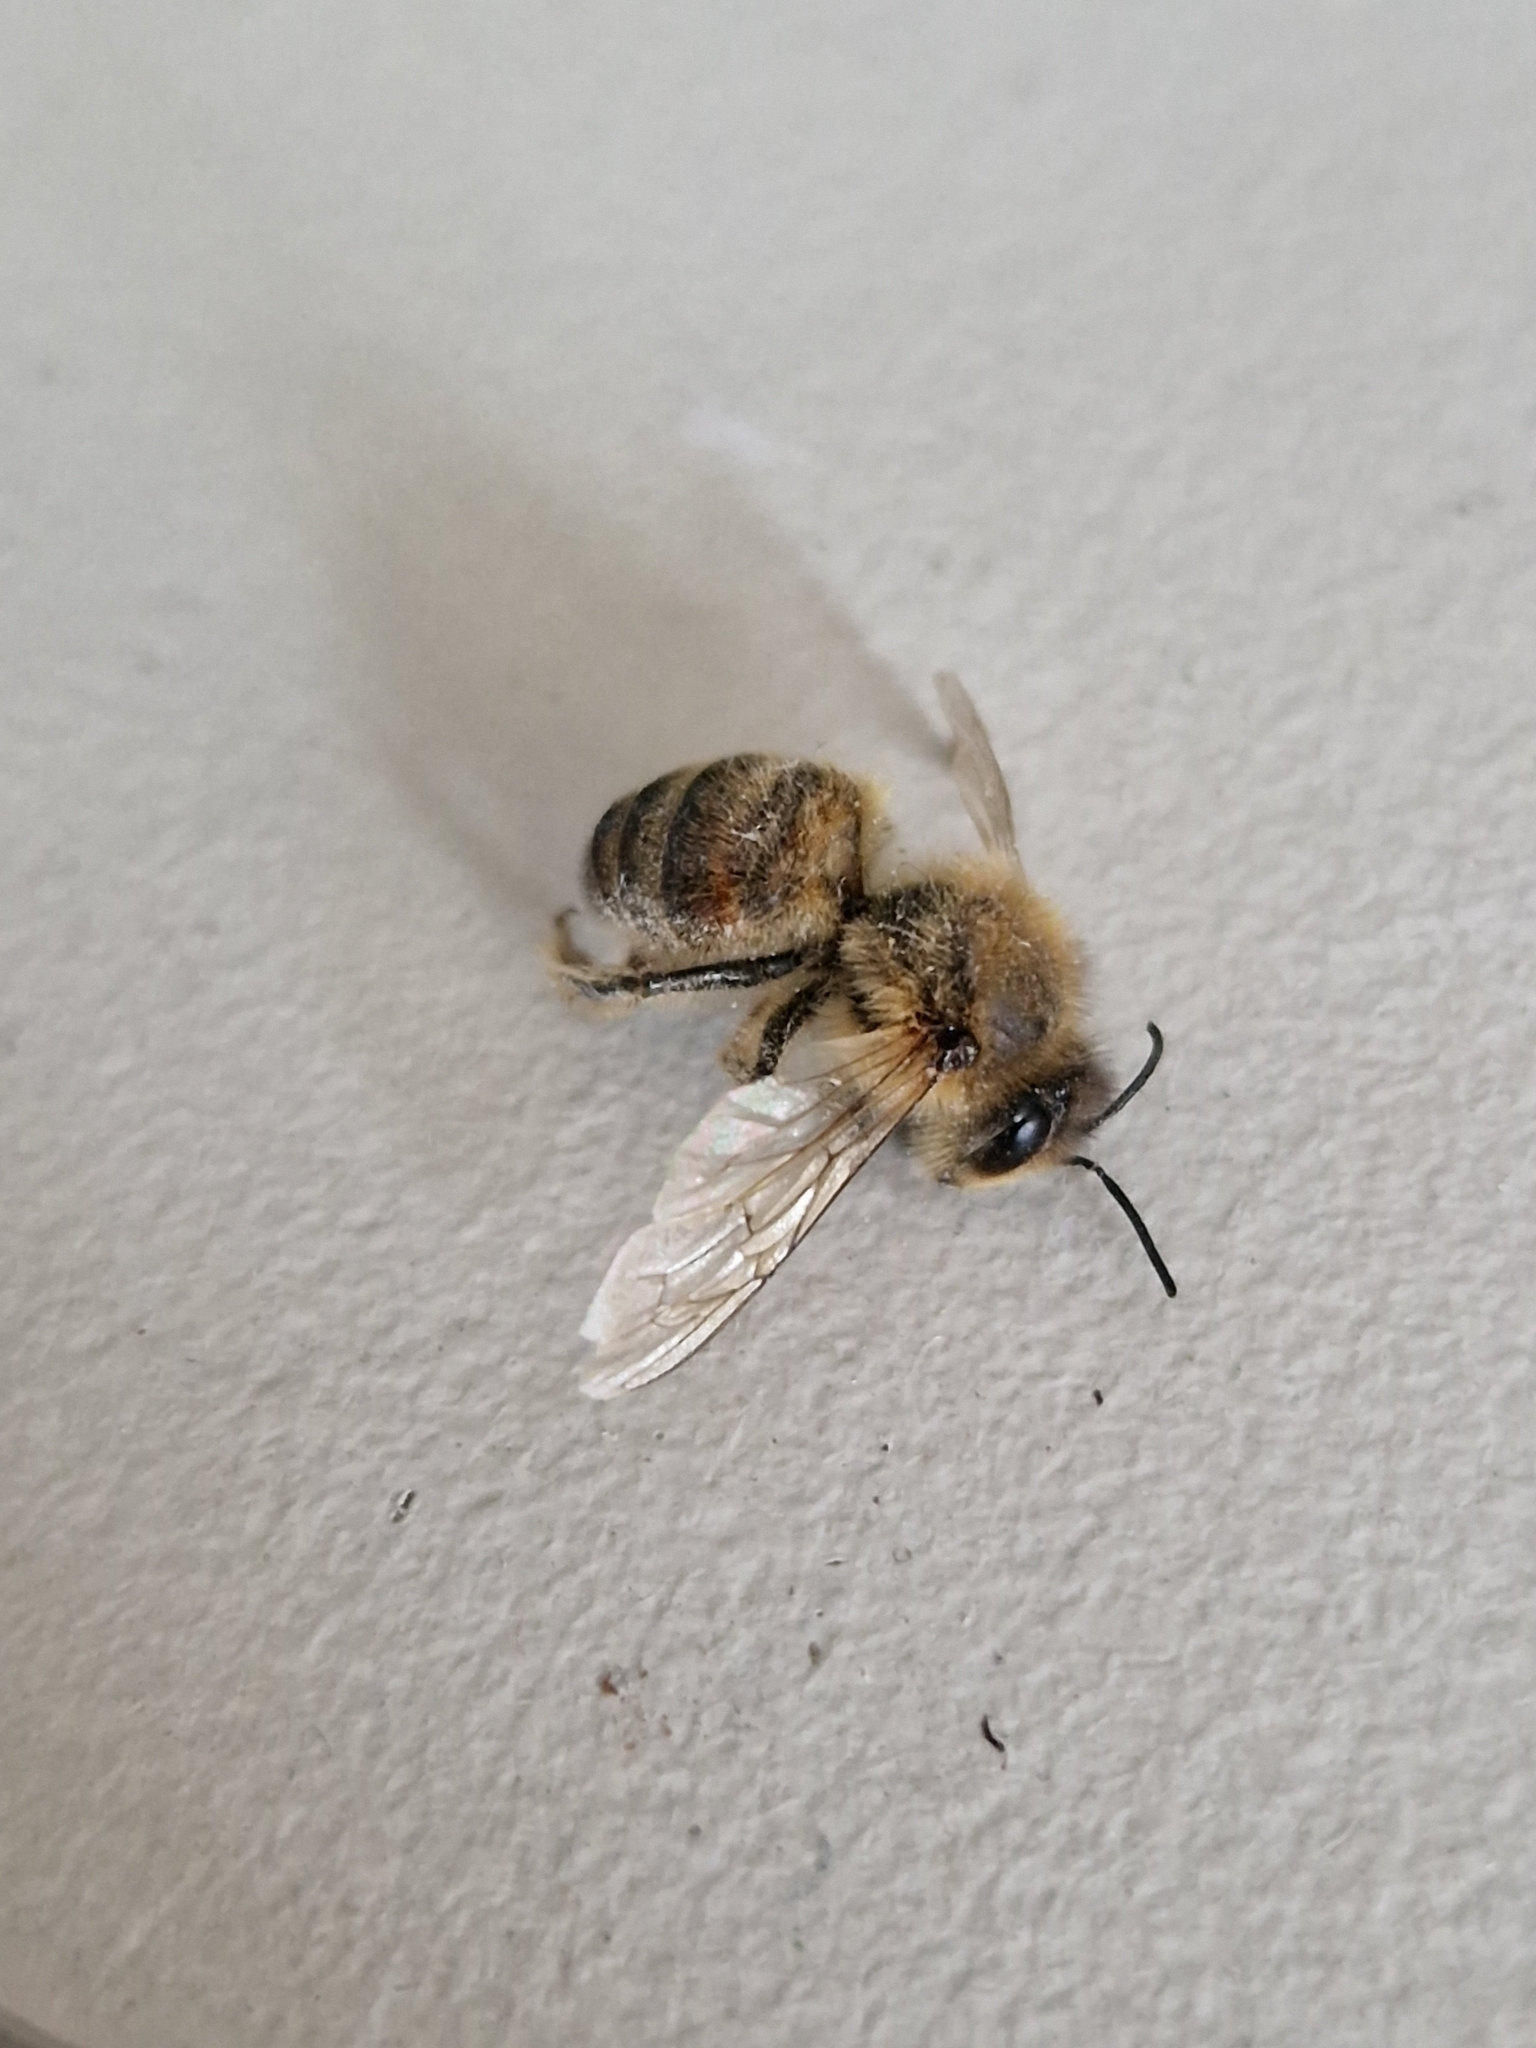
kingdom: Animalia
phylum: Arthropoda
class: Insecta
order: Hymenoptera
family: Apidae
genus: Apis
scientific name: Apis mellifera
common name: Honey bee
